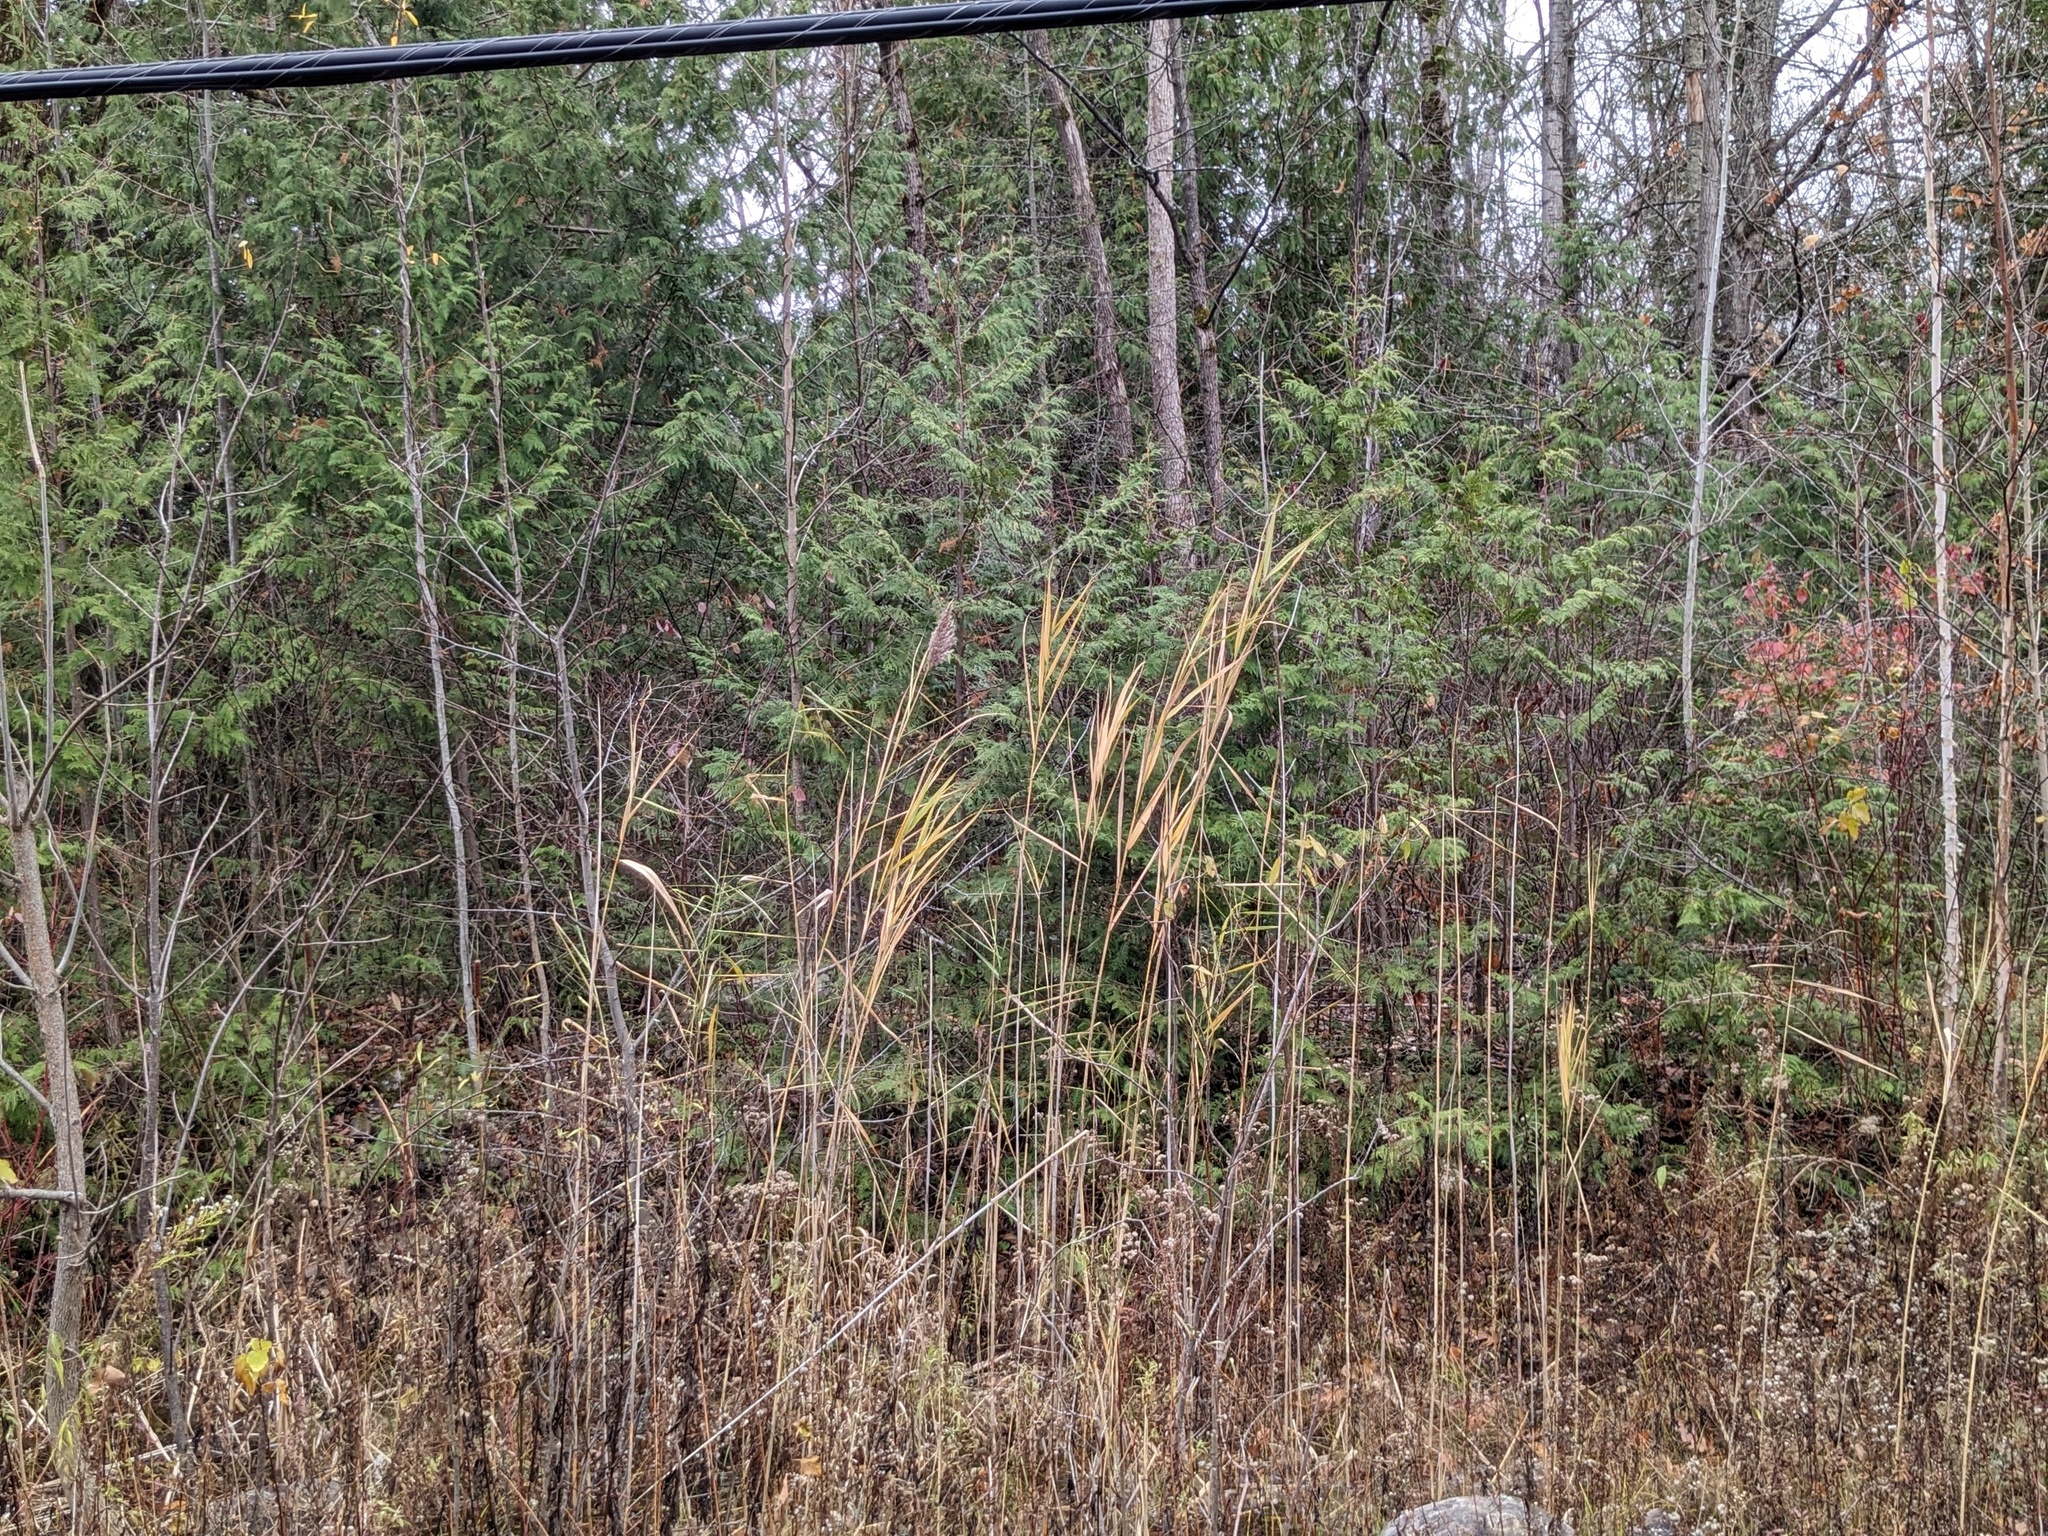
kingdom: Plantae
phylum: Tracheophyta
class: Liliopsida
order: Poales
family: Poaceae
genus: Phragmites
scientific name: Phragmites australis
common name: Common reed
